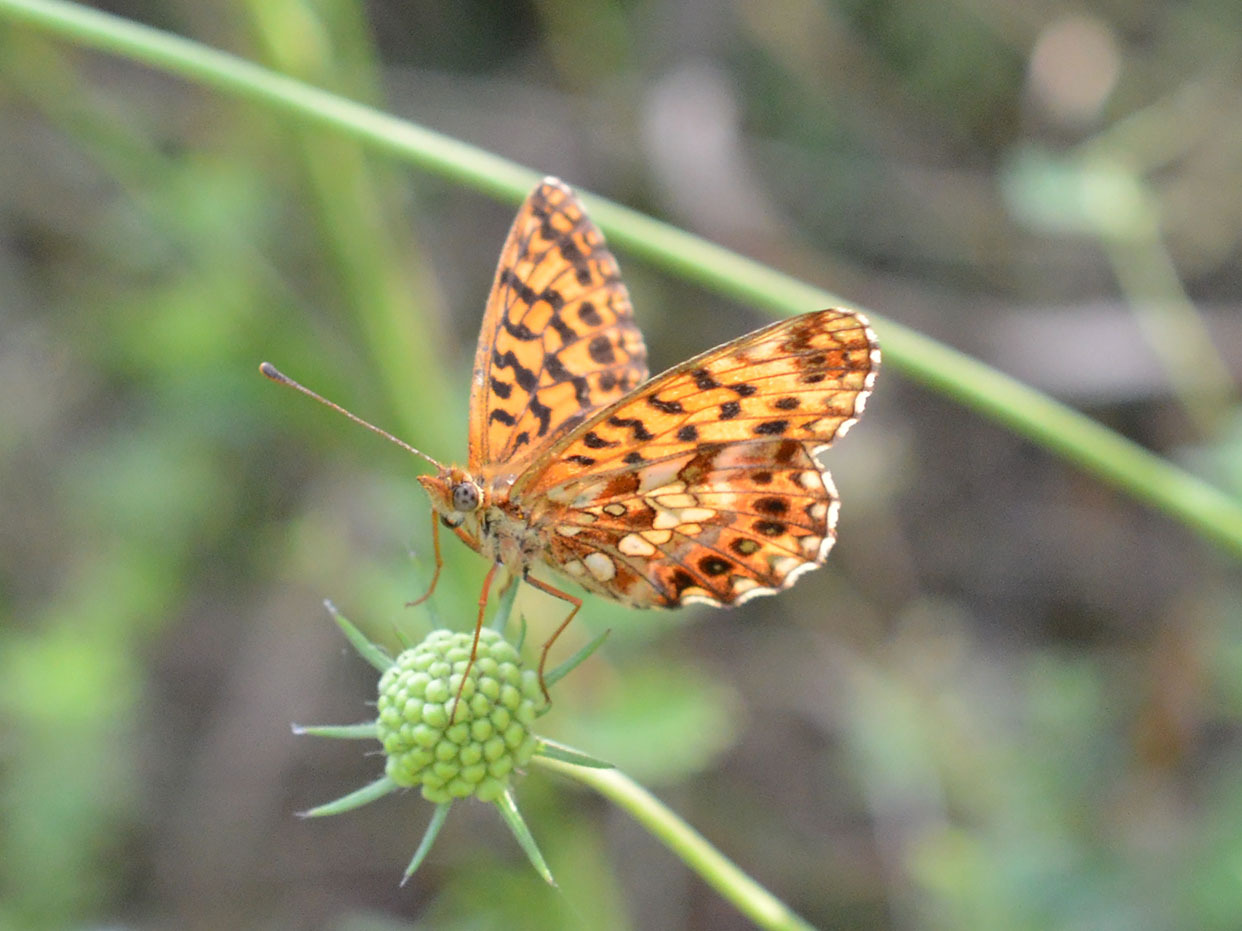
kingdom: Animalia
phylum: Arthropoda
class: Insecta
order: Lepidoptera
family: Nymphalidae
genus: Boloria
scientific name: Boloria dia
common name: Weaver's fritillary
